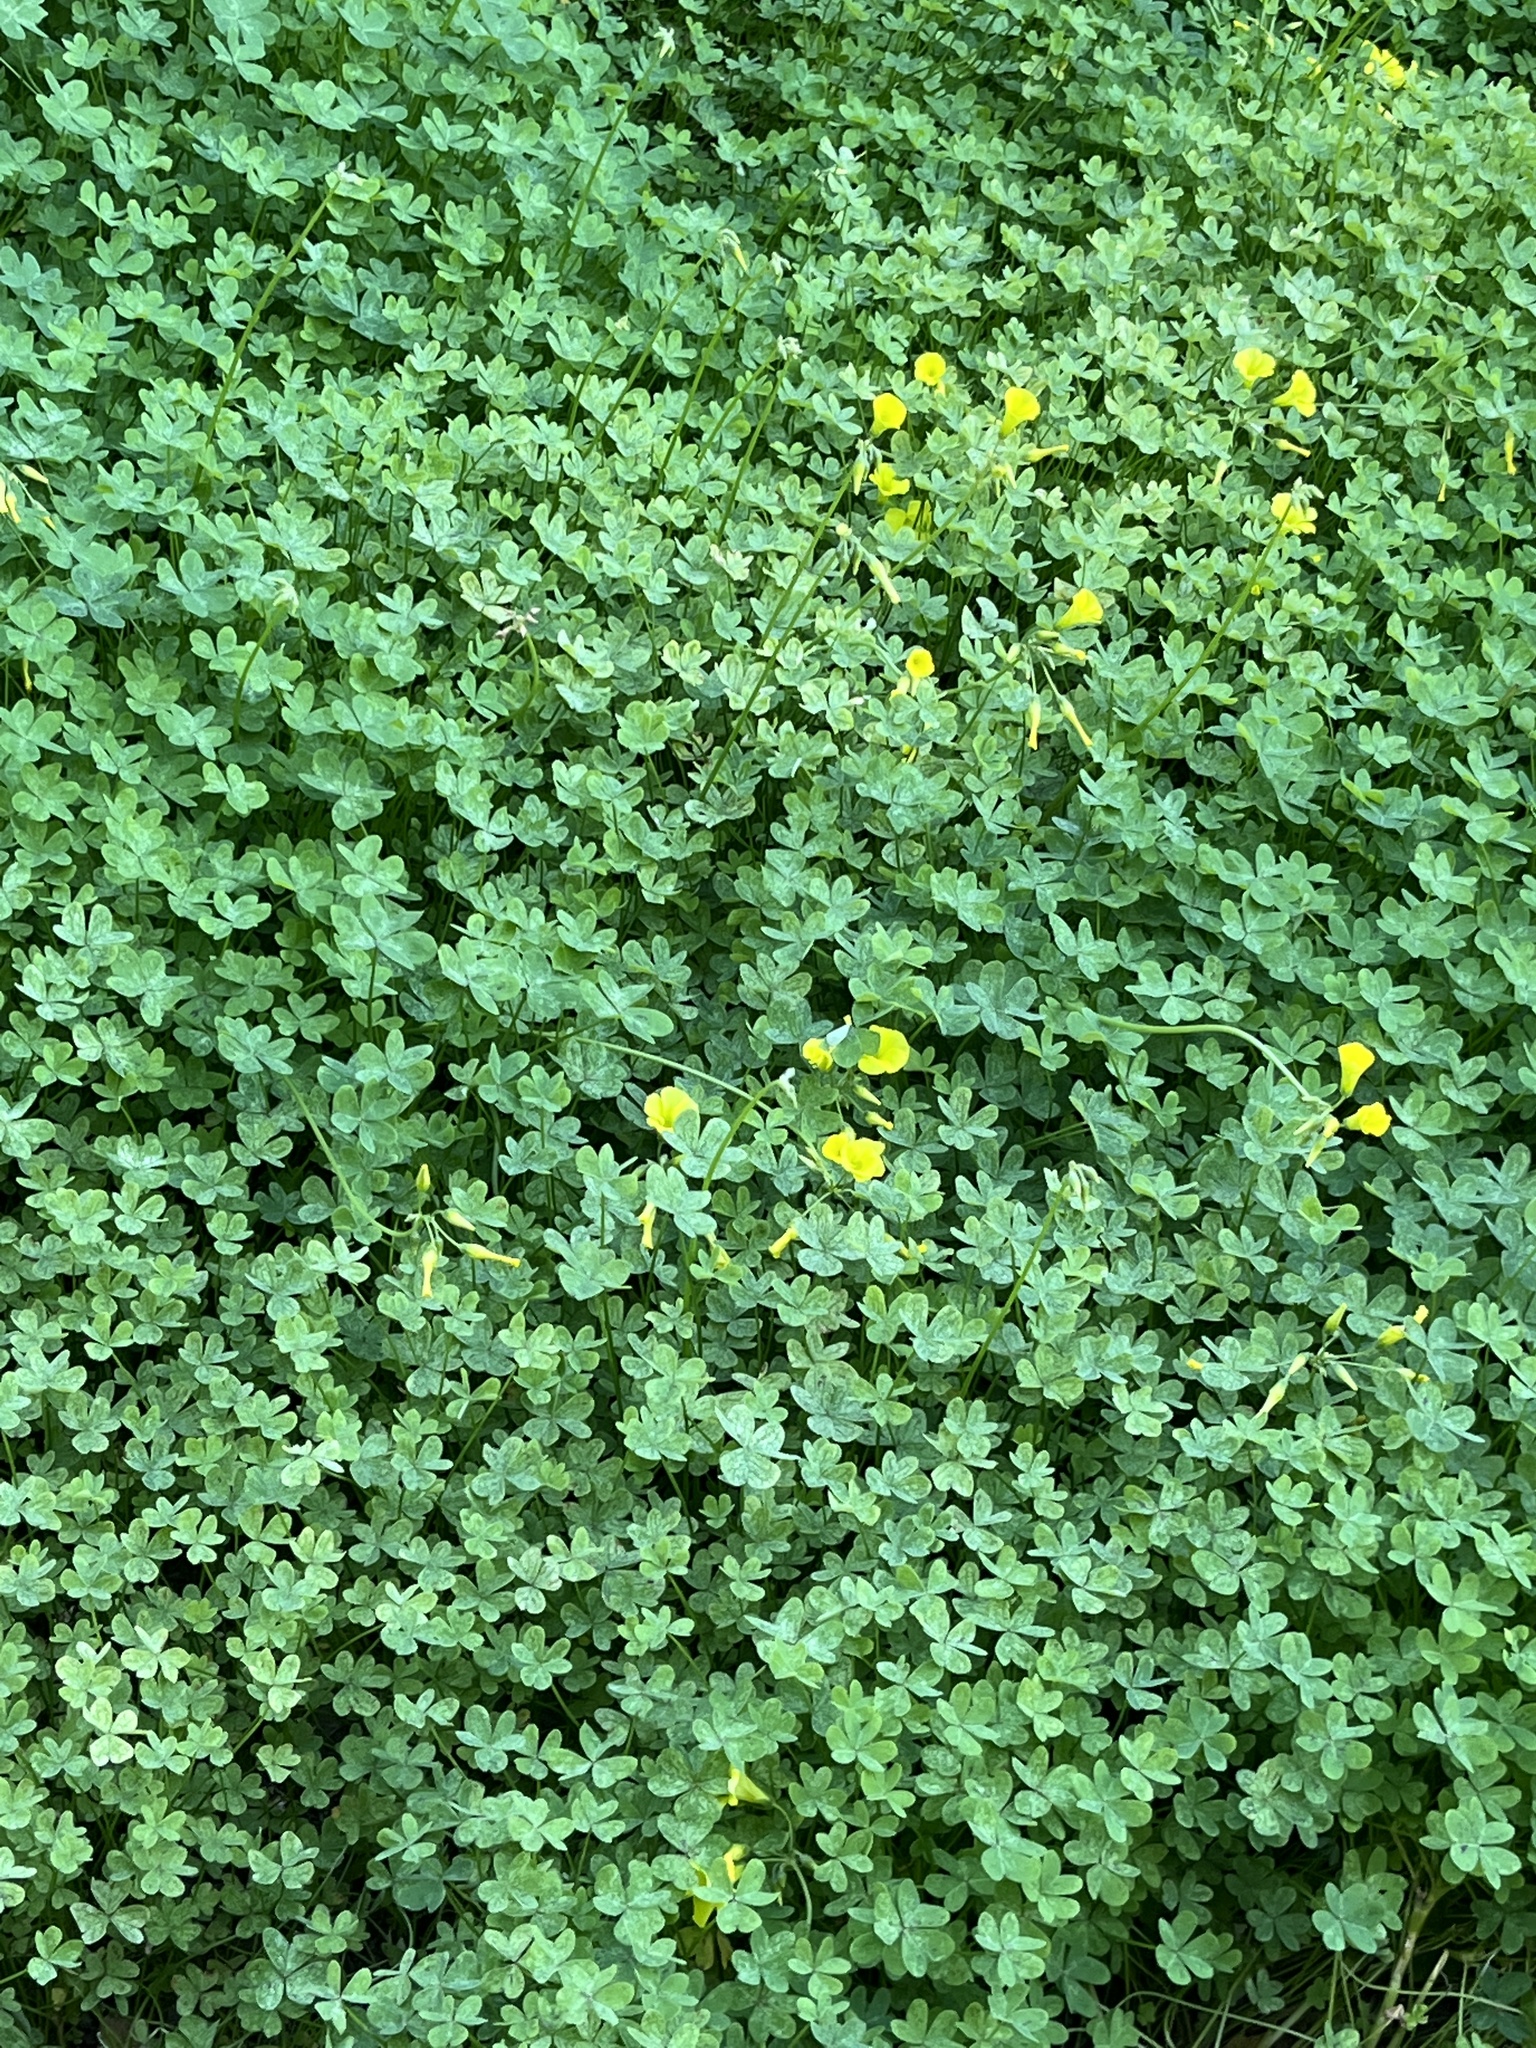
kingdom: Plantae
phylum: Tracheophyta
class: Magnoliopsida
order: Oxalidales
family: Oxalidaceae
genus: Oxalis
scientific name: Oxalis pes-caprae
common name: Bermuda-buttercup
